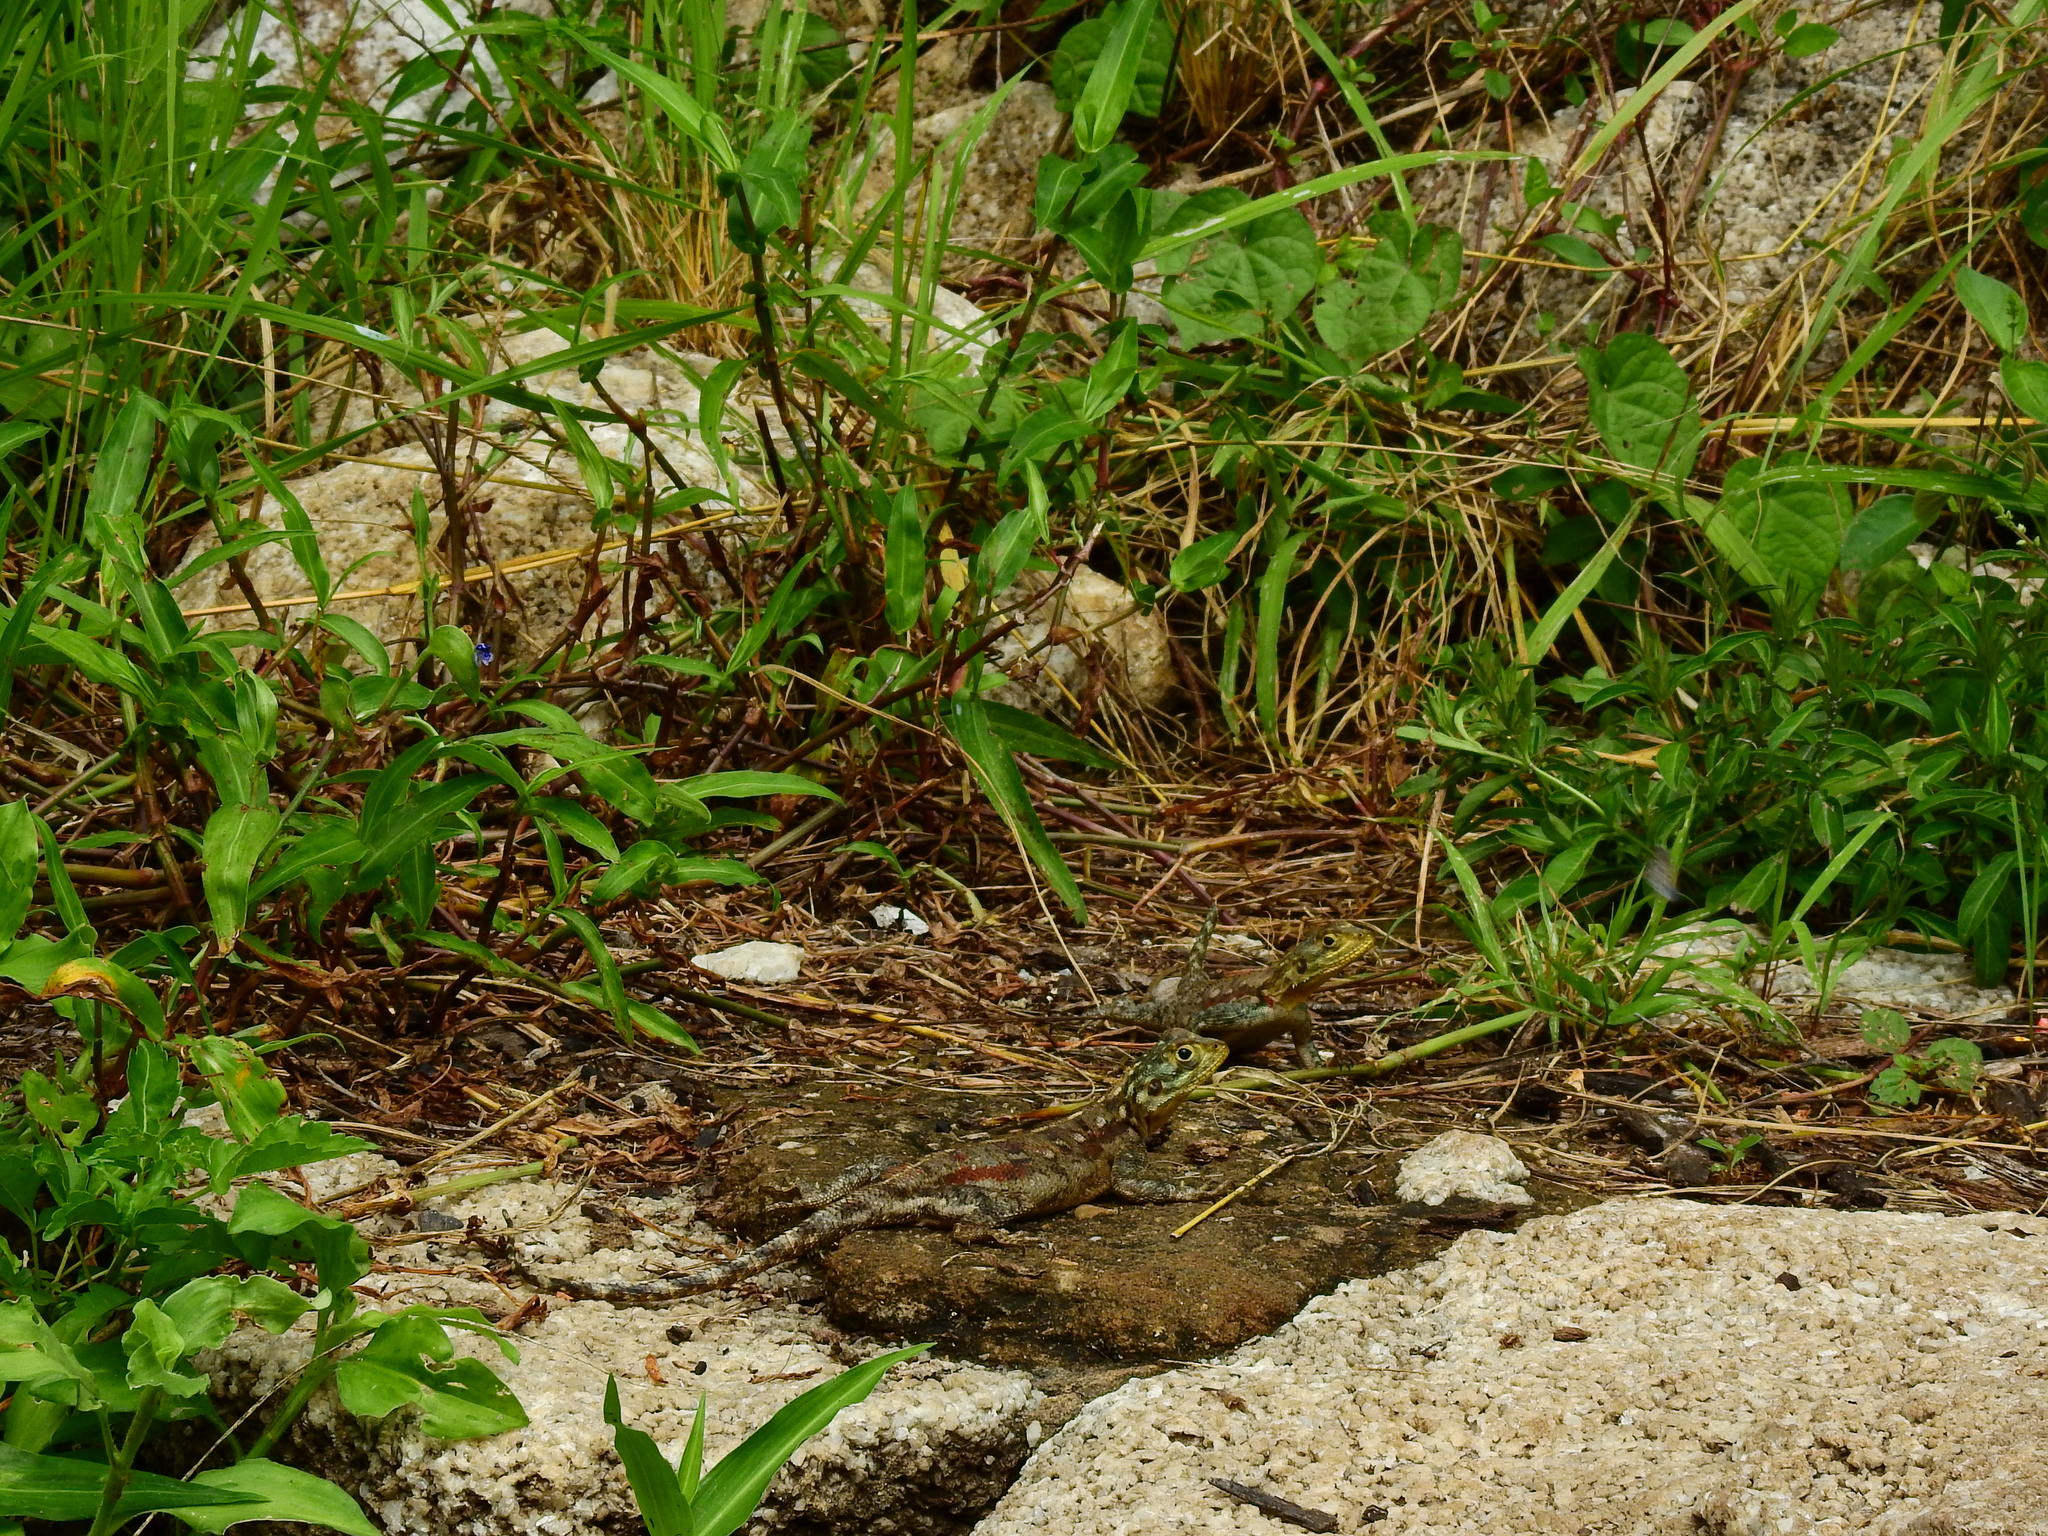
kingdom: Animalia
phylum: Chordata
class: Squamata
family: Agamidae
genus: Agama
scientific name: Agama lionotus
